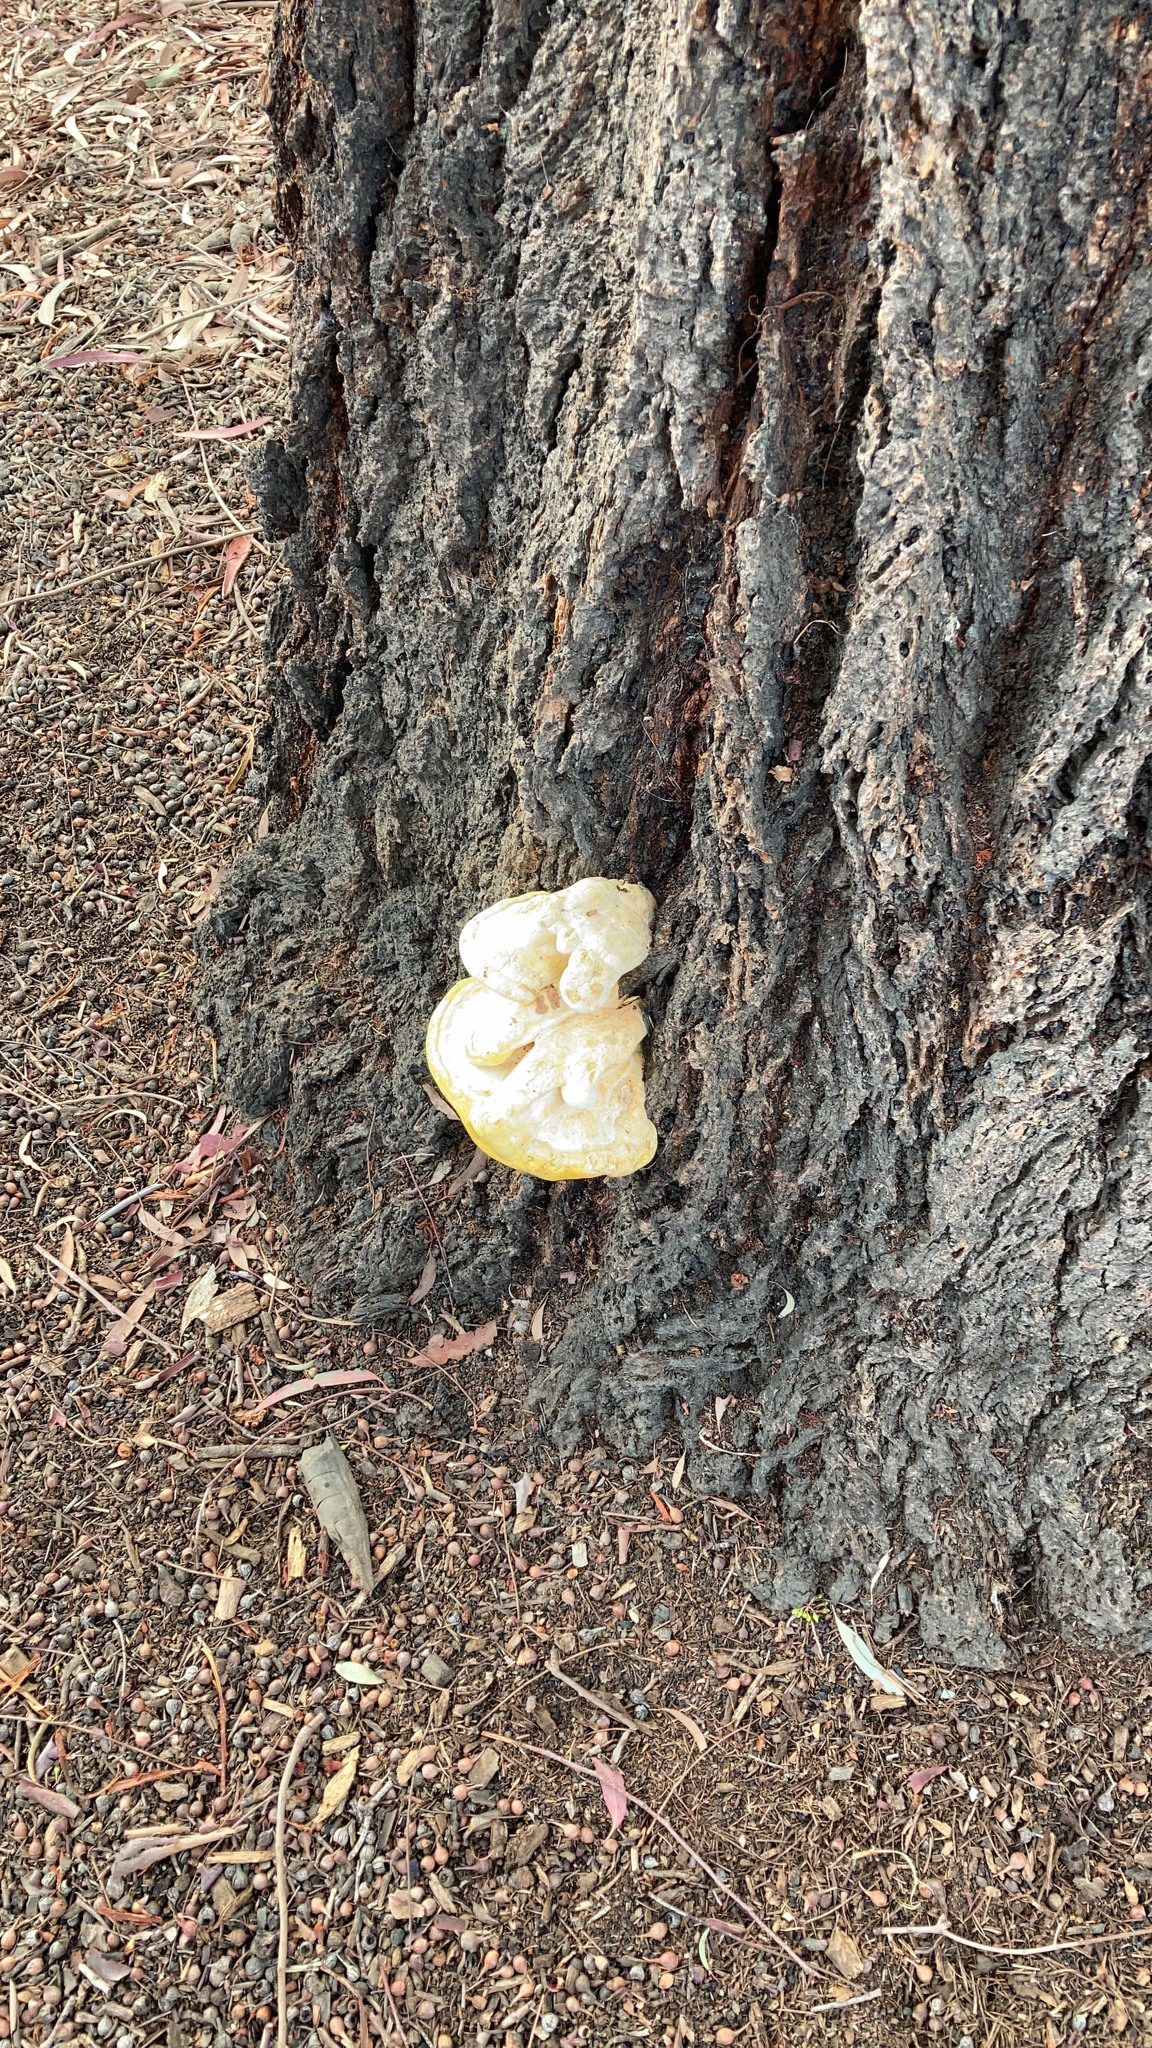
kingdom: Fungi
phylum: Basidiomycota
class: Agaricomycetes
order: Polyporales
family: Laetiporaceae
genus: Laetiporus
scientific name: Laetiporus gilbertsonii
